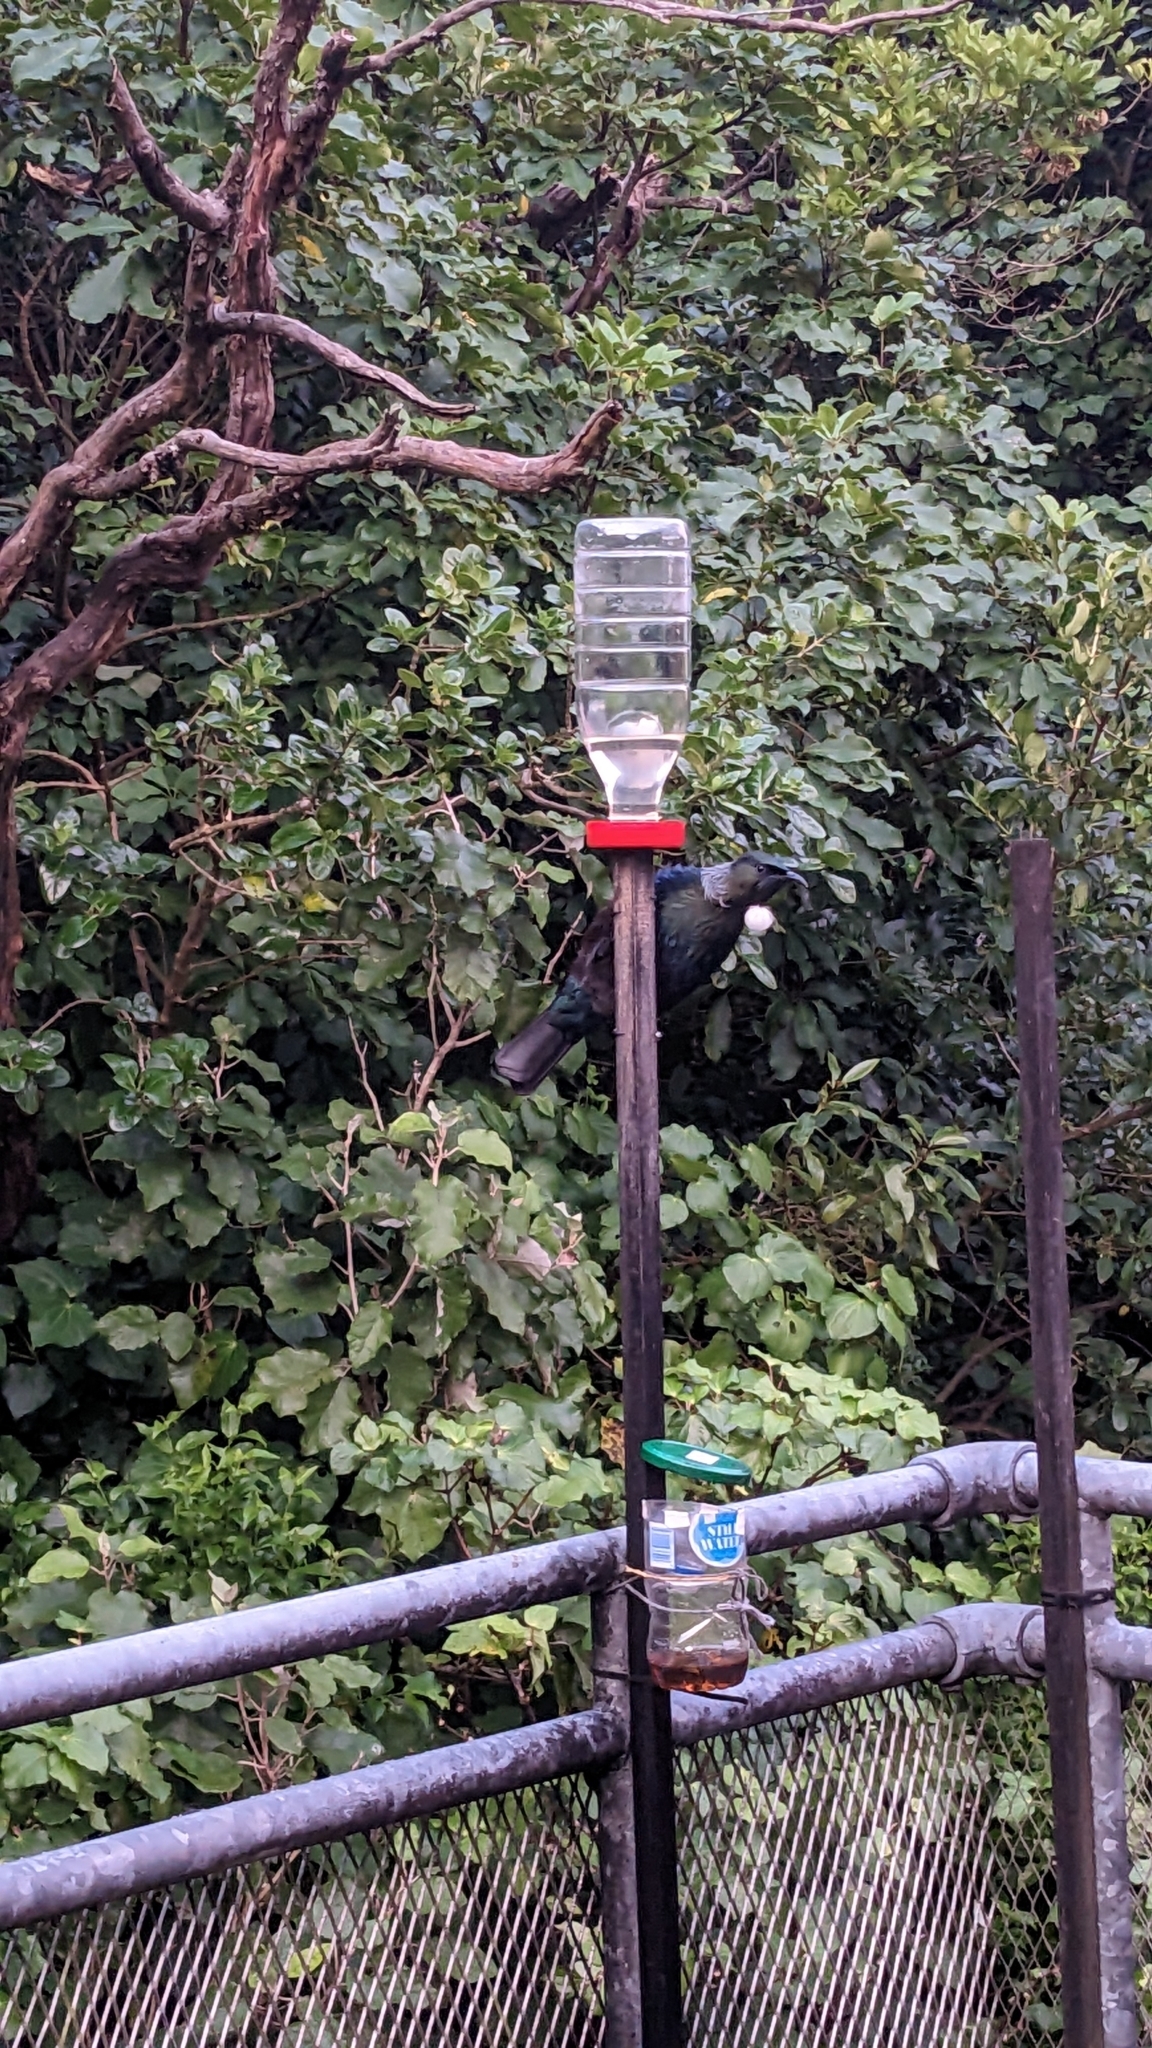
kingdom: Animalia
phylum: Chordata
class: Aves
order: Passeriformes
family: Meliphagidae
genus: Prosthemadera
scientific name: Prosthemadera novaeseelandiae
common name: Tui
